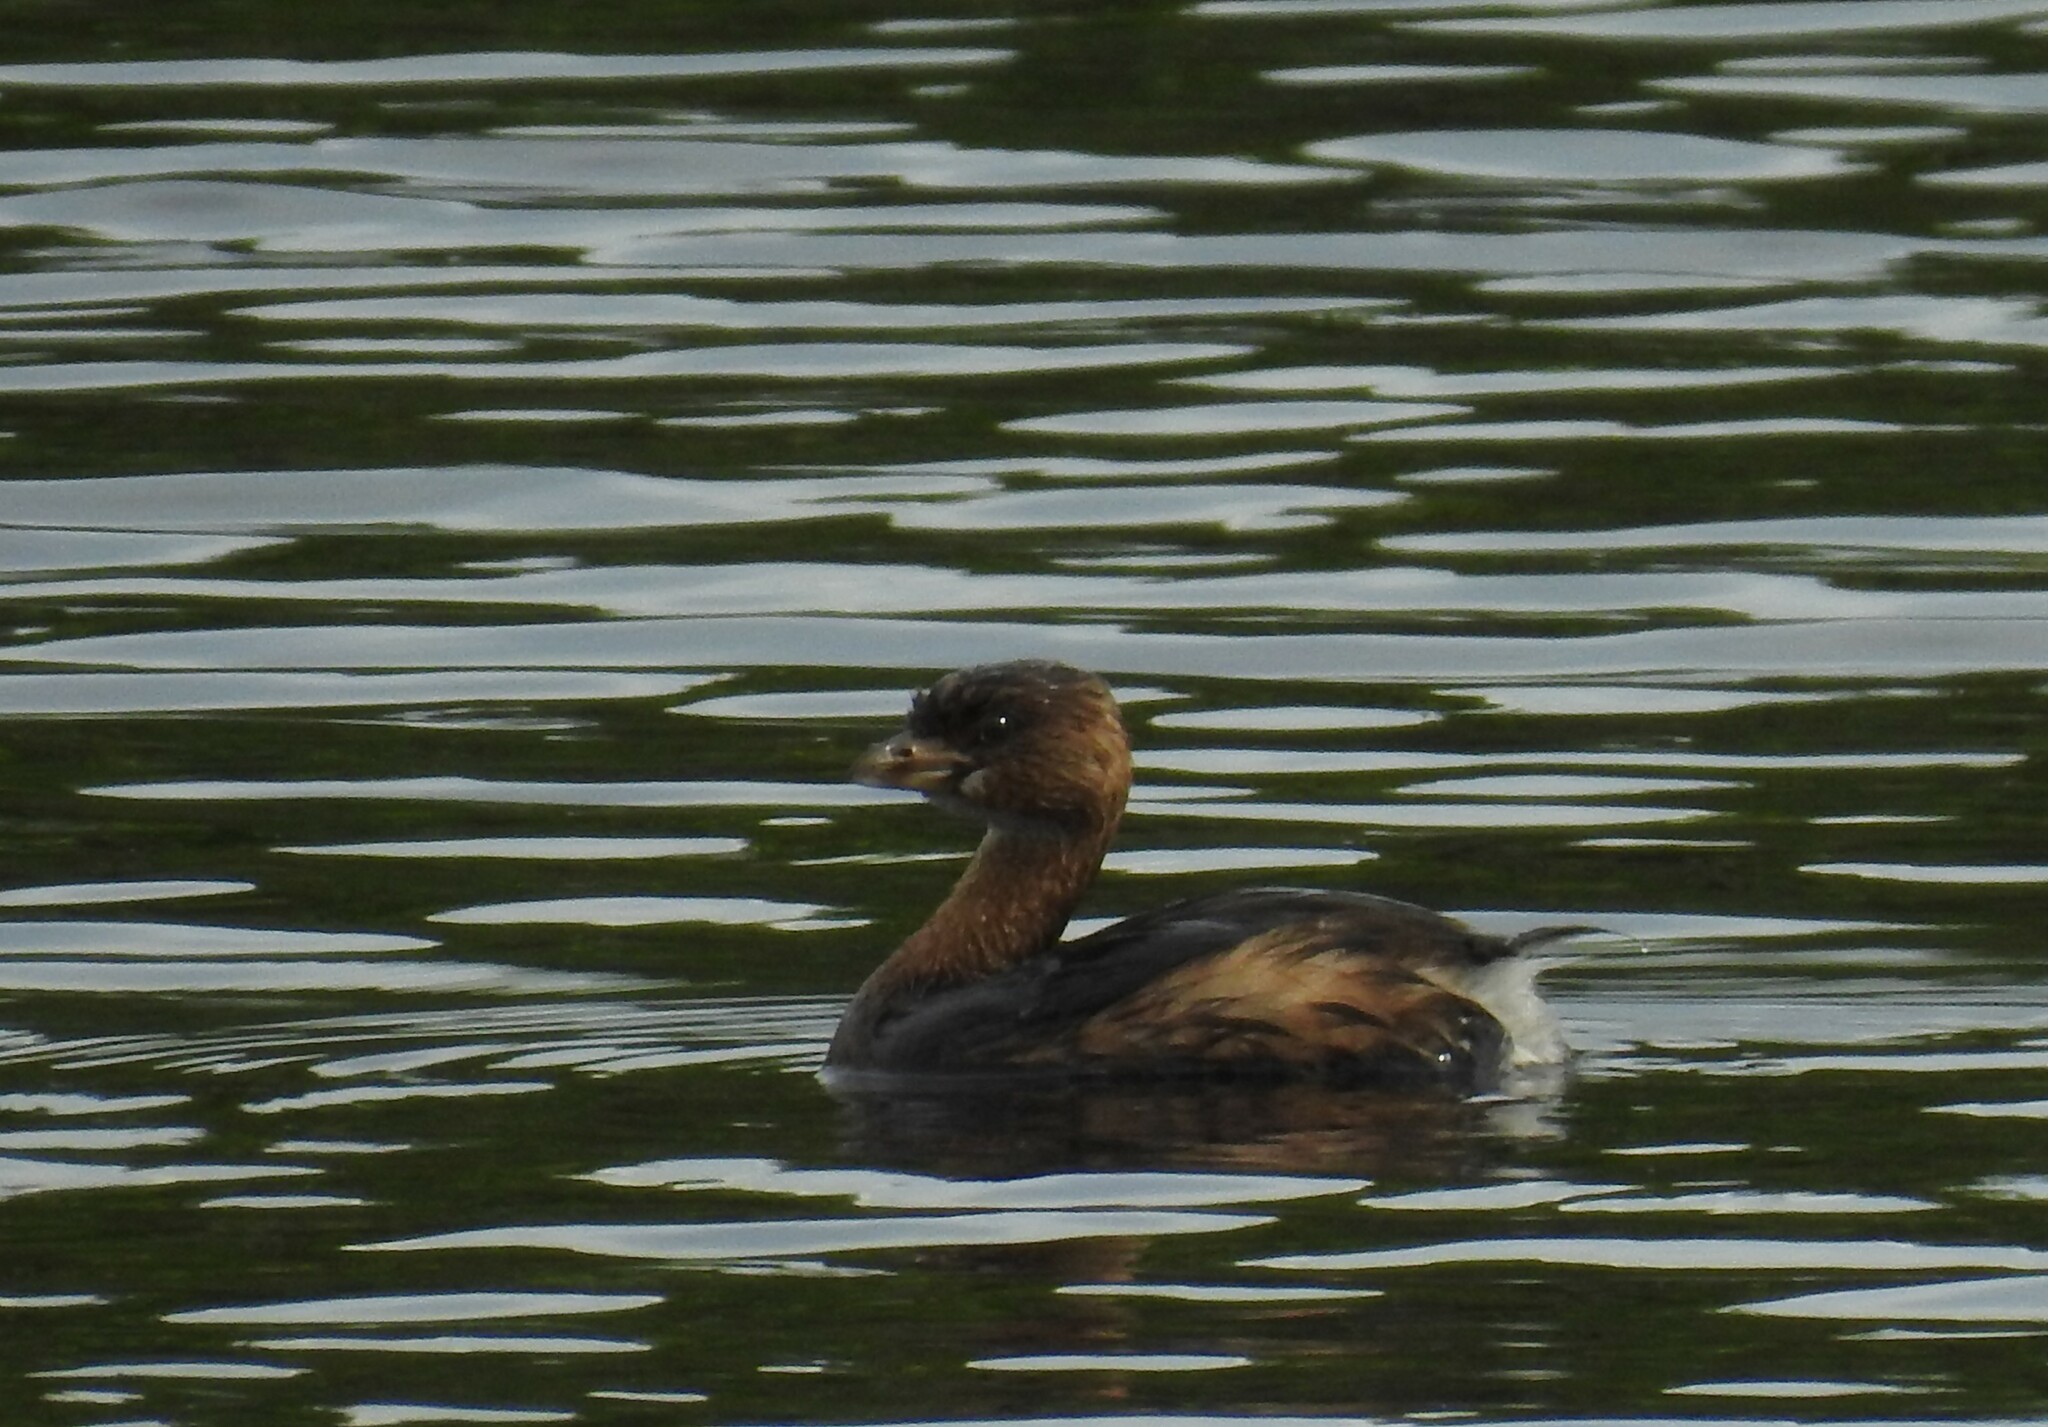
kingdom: Animalia
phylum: Chordata
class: Aves
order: Podicipediformes
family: Podicipedidae
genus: Podilymbus
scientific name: Podilymbus podiceps
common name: Pied-billed grebe
